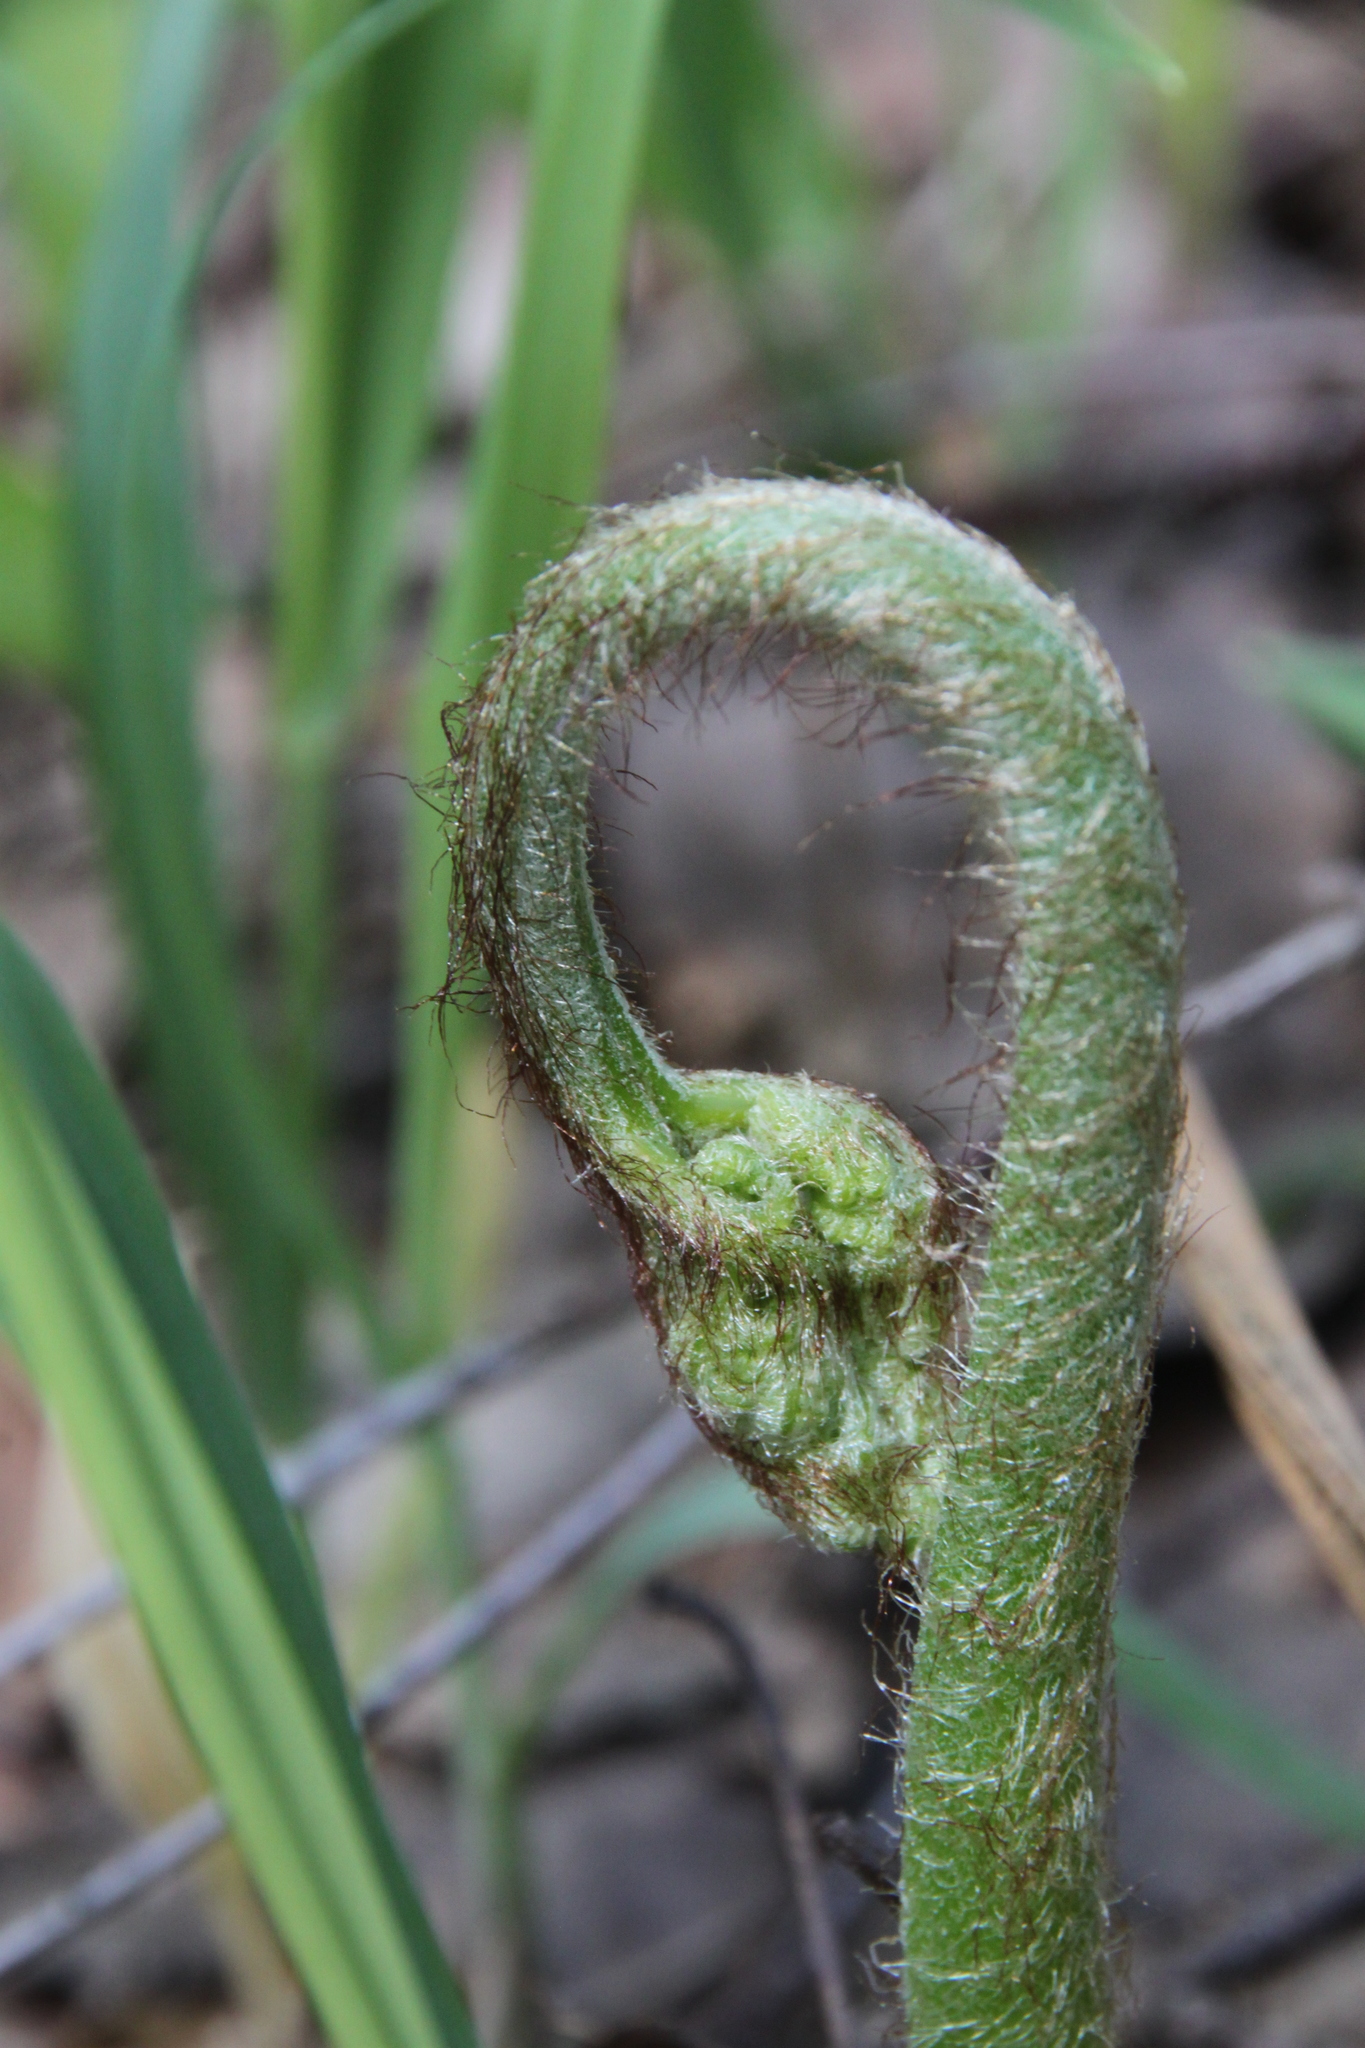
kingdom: Plantae
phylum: Tracheophyta
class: Polypodiopsida
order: Polypodiales
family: Dennstaedtiaceae
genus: Pteridium
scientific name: Pteridium aquilinum
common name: Bracken
